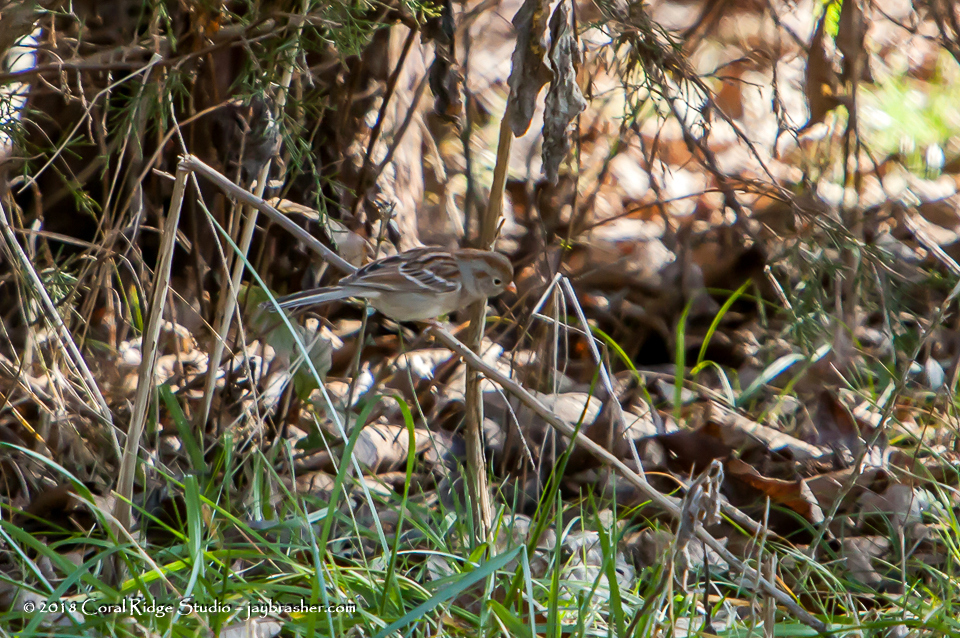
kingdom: Animalia
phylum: Chordata
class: Aves
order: Passeriformes
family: Passerellidae
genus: Spizella
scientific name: Spizella pusilla
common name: Field sparrow
